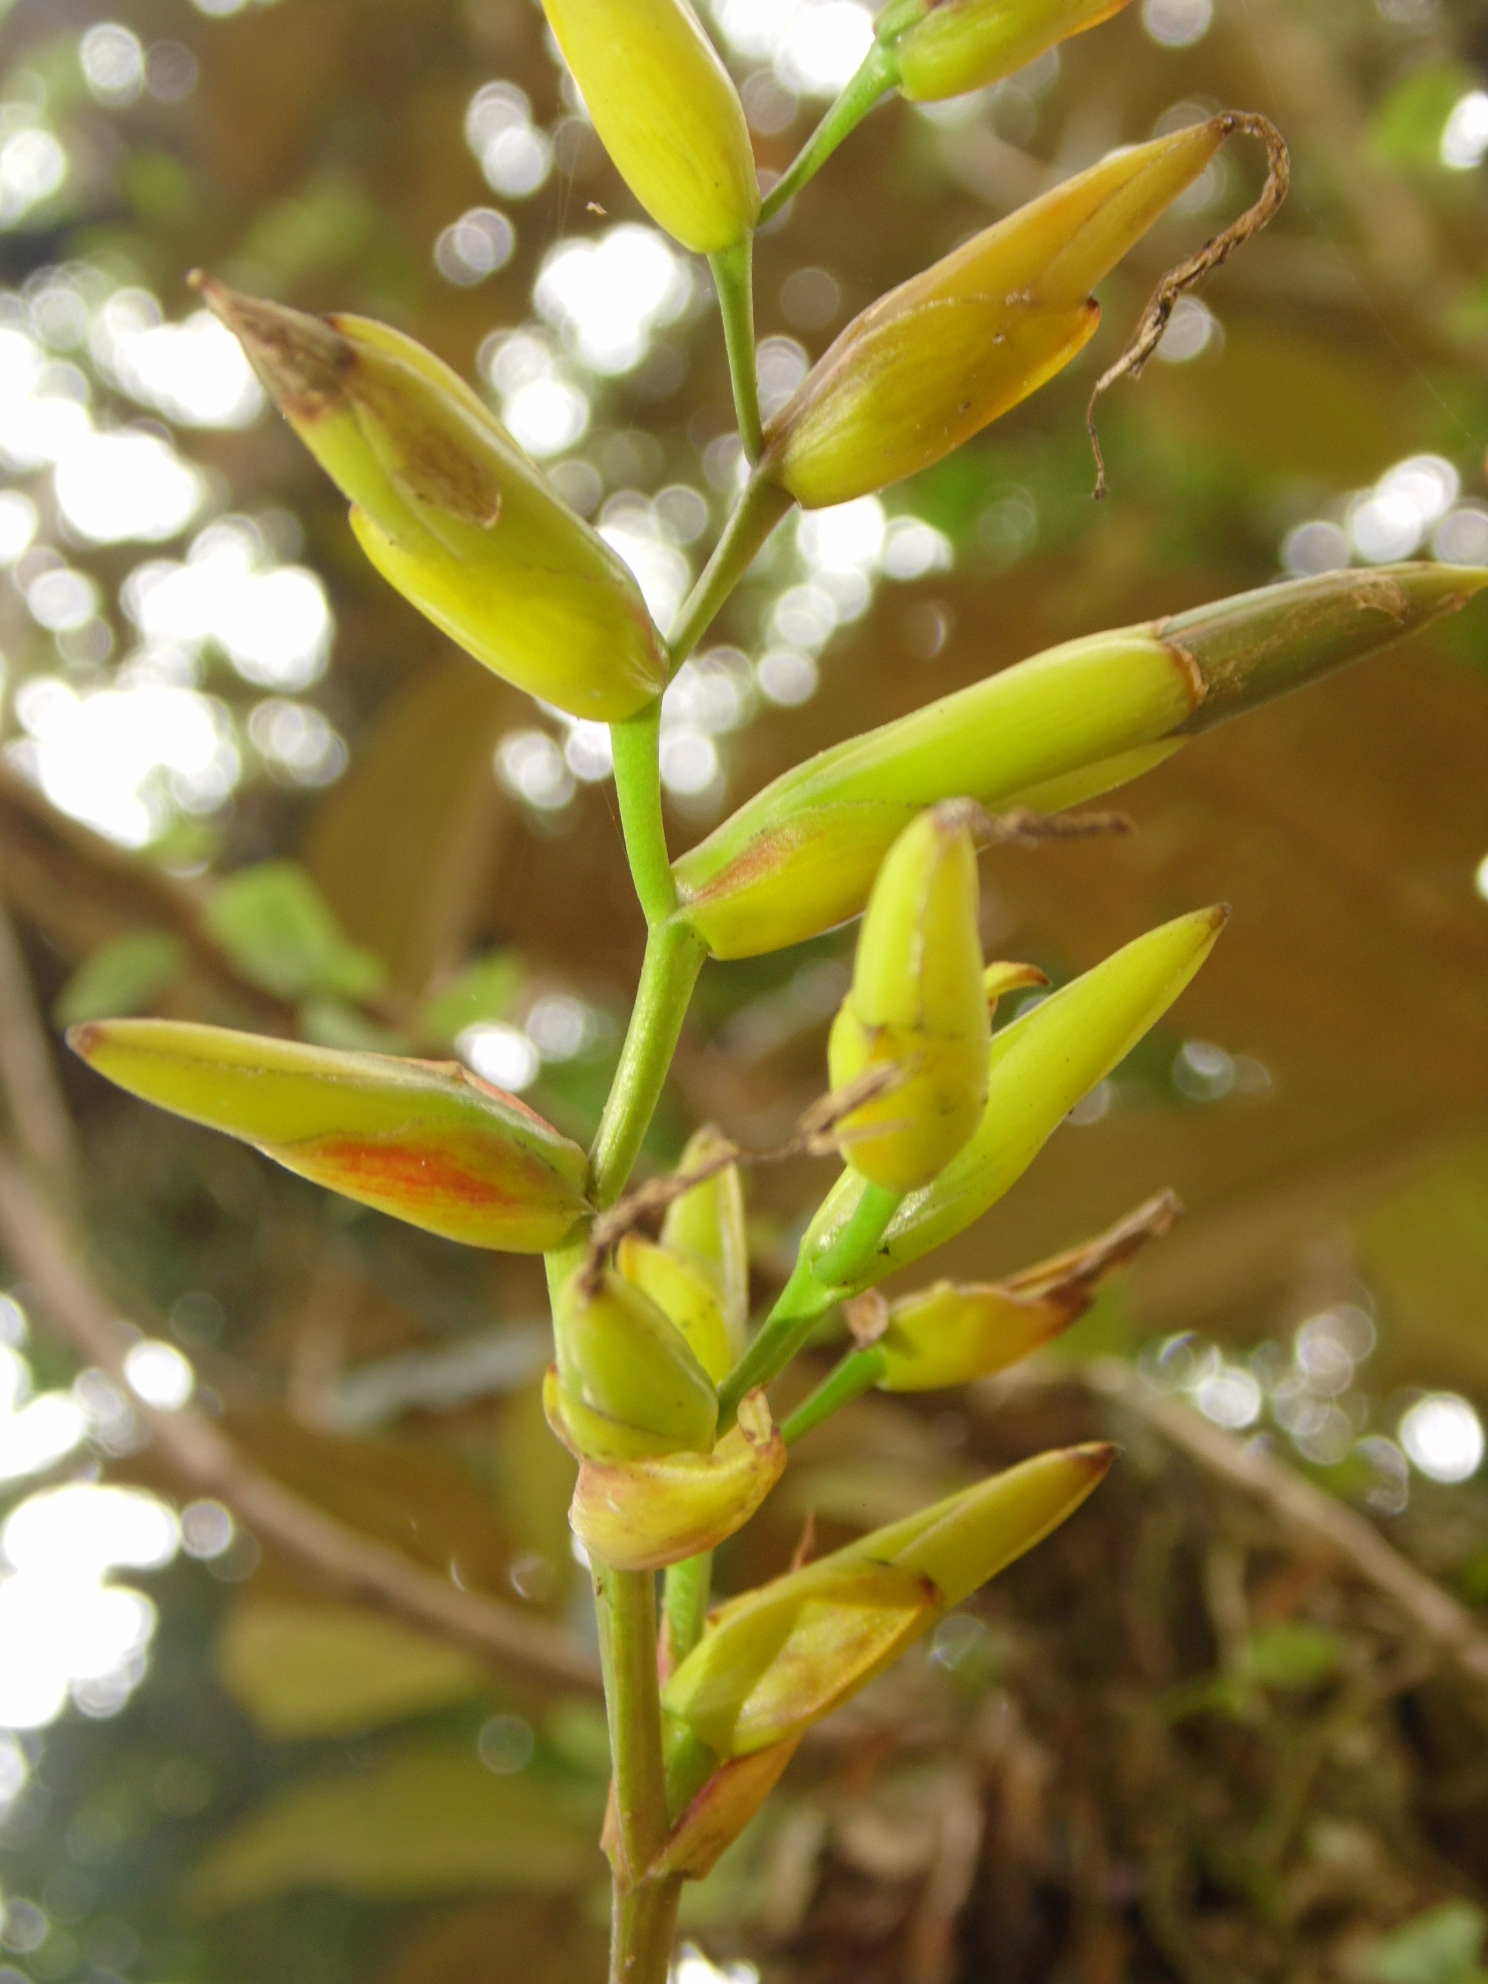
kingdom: Plantae
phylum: Tracheophyta
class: Liliopsida
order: Poales
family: Bromeliaceae
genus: Vriesea
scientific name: Vriesea rodigasiana
